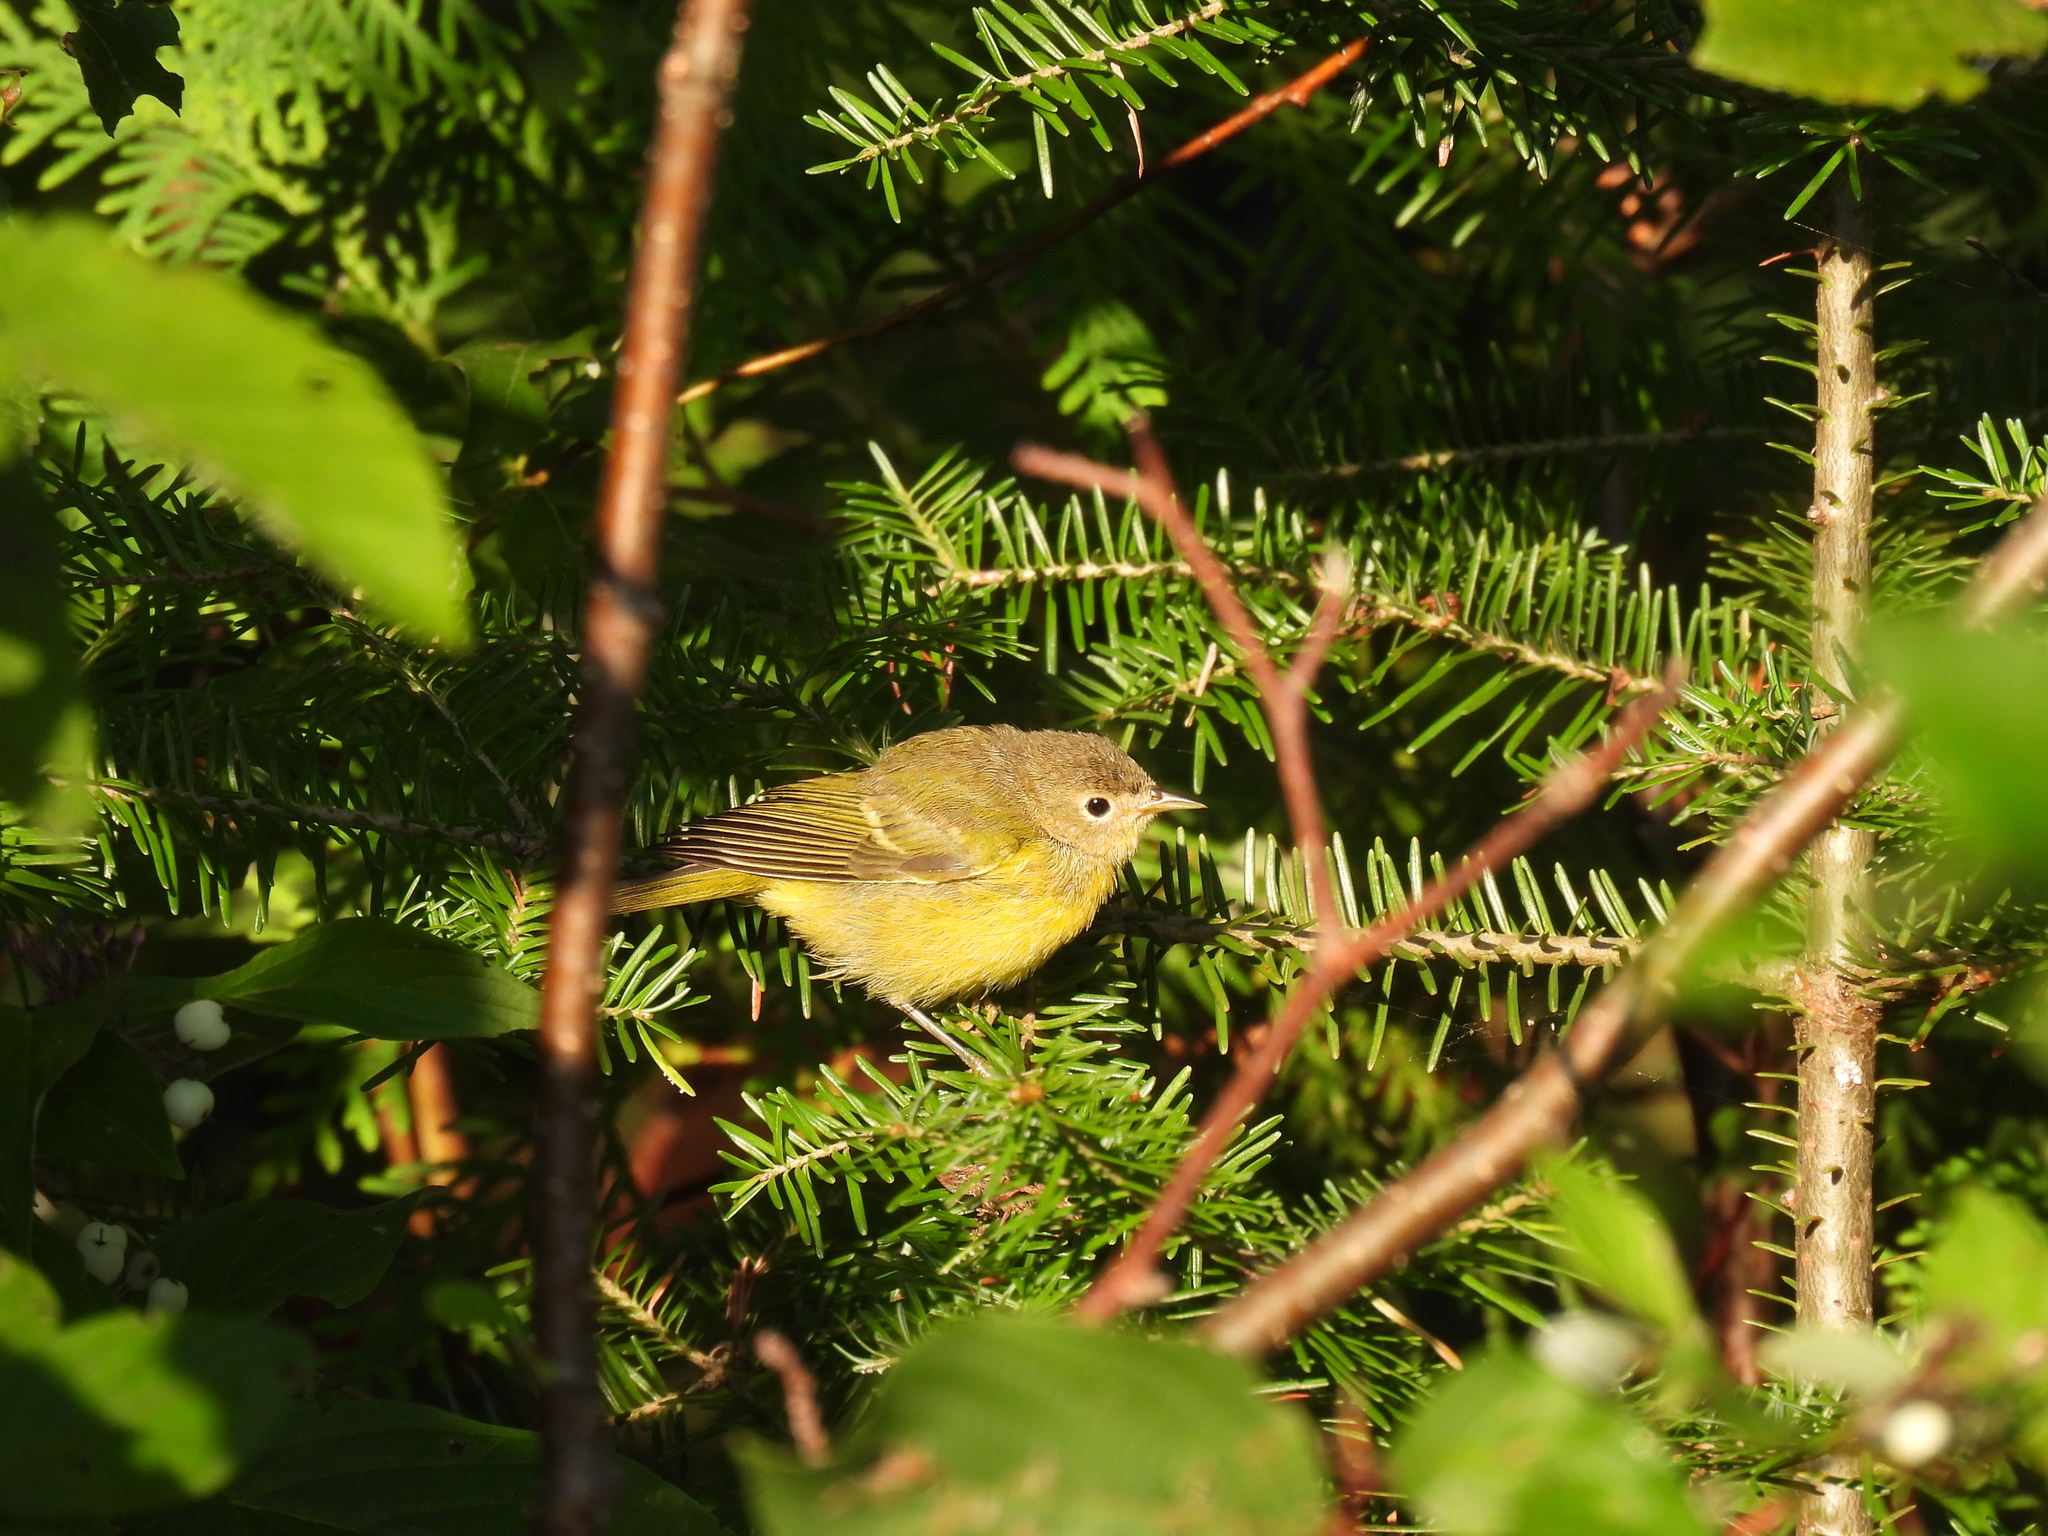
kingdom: Animalia
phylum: Chordata
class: Aves
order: Passeriformes
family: Parulidae
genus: Leiothlypis
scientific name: Leiothlypis ruficapilla
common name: Nashville warbler
